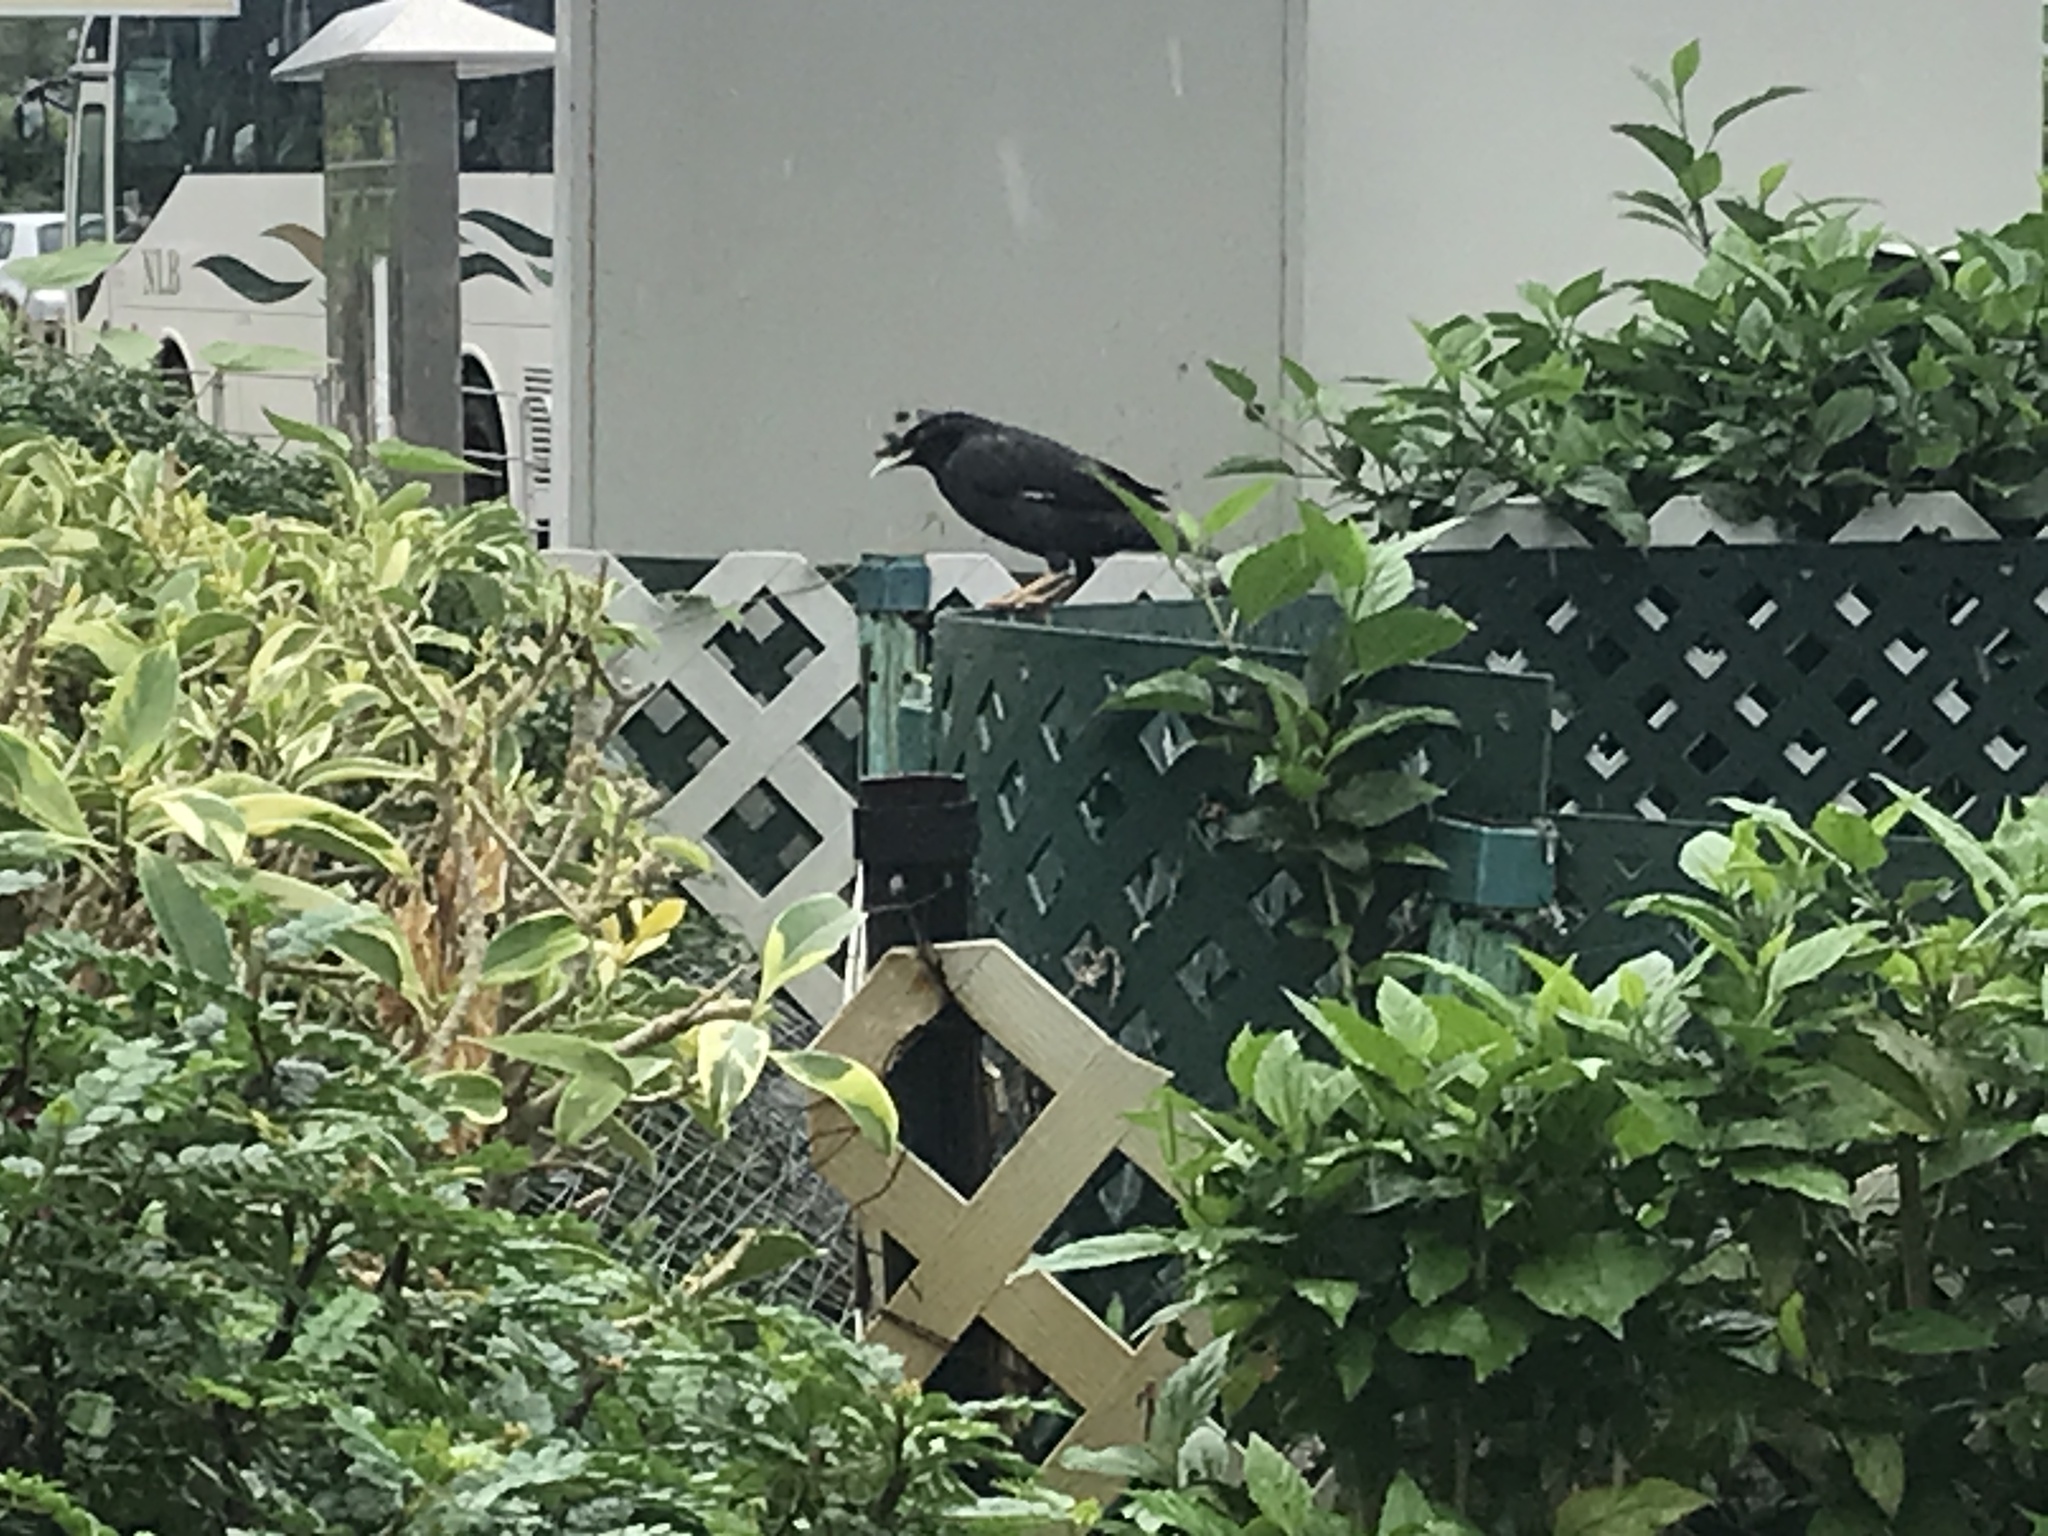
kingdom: Animalia
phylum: Chordata
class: Aves
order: Passeriformes
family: Sturnidae
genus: Acridotheres
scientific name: Acridotheres cristatellus
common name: Crested myna
